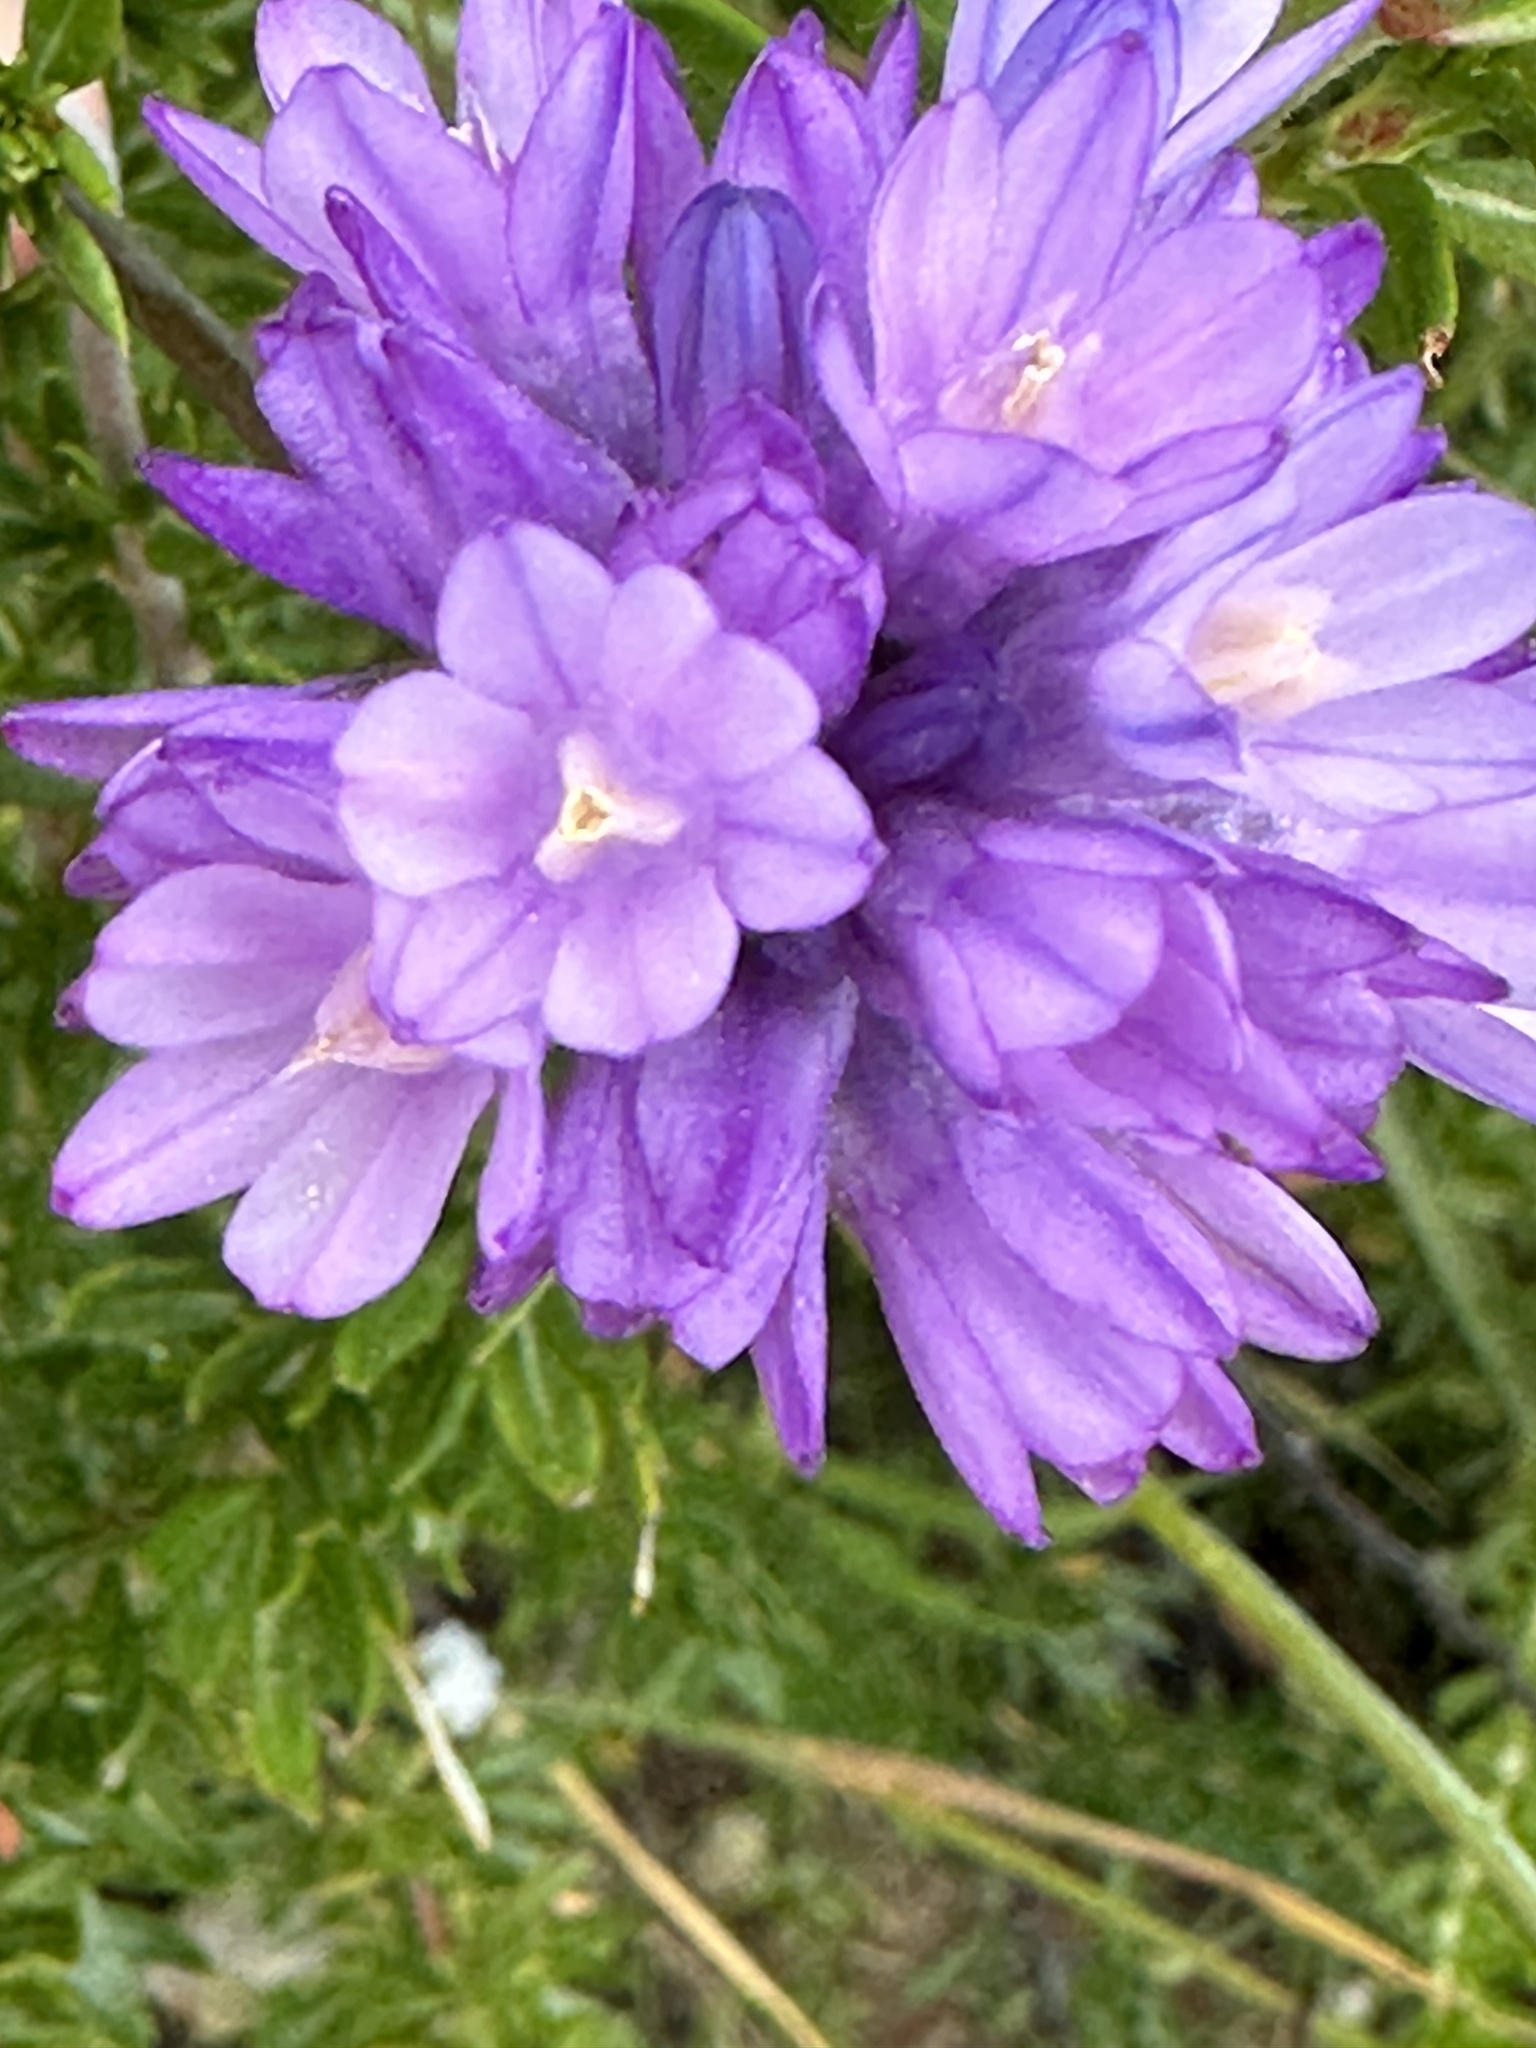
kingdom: Plantae
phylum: Tracheophyta
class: Liliopsida
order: Asparagales
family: Asparagaceae
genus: Dipterostemon
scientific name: Dipterostemon capitatus
